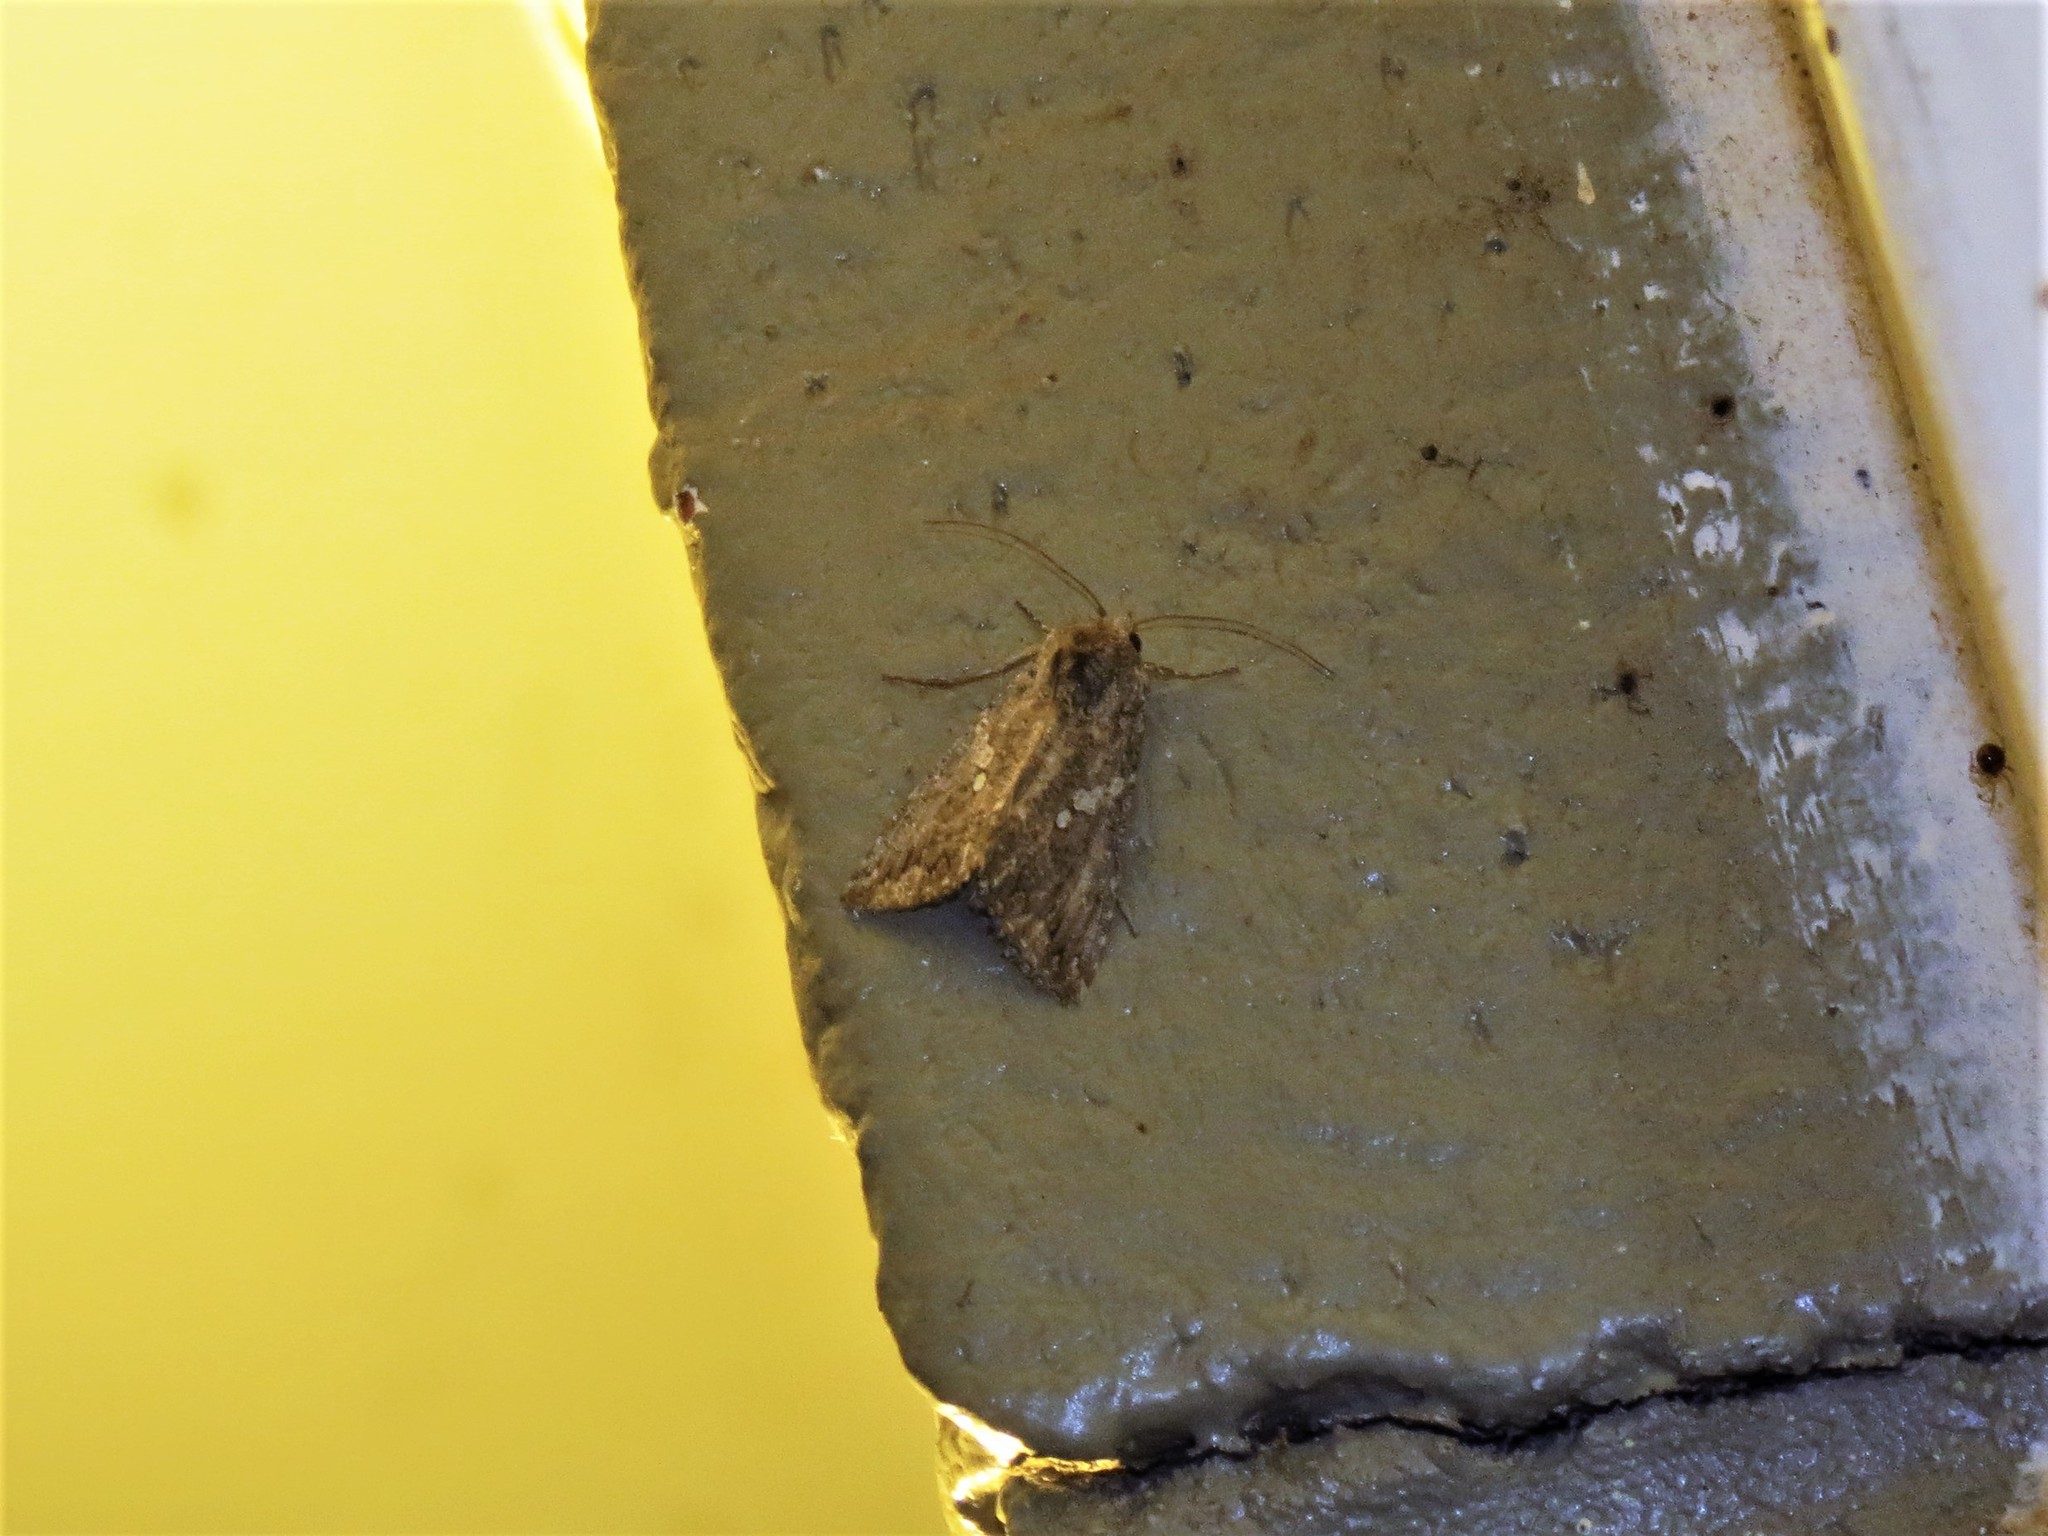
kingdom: Animalia
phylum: Arthropoda
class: Insecta
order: Lepidoptera
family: Noctuidae
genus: Trichoplusia
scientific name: Trichoplusia ni
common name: Ni moth
